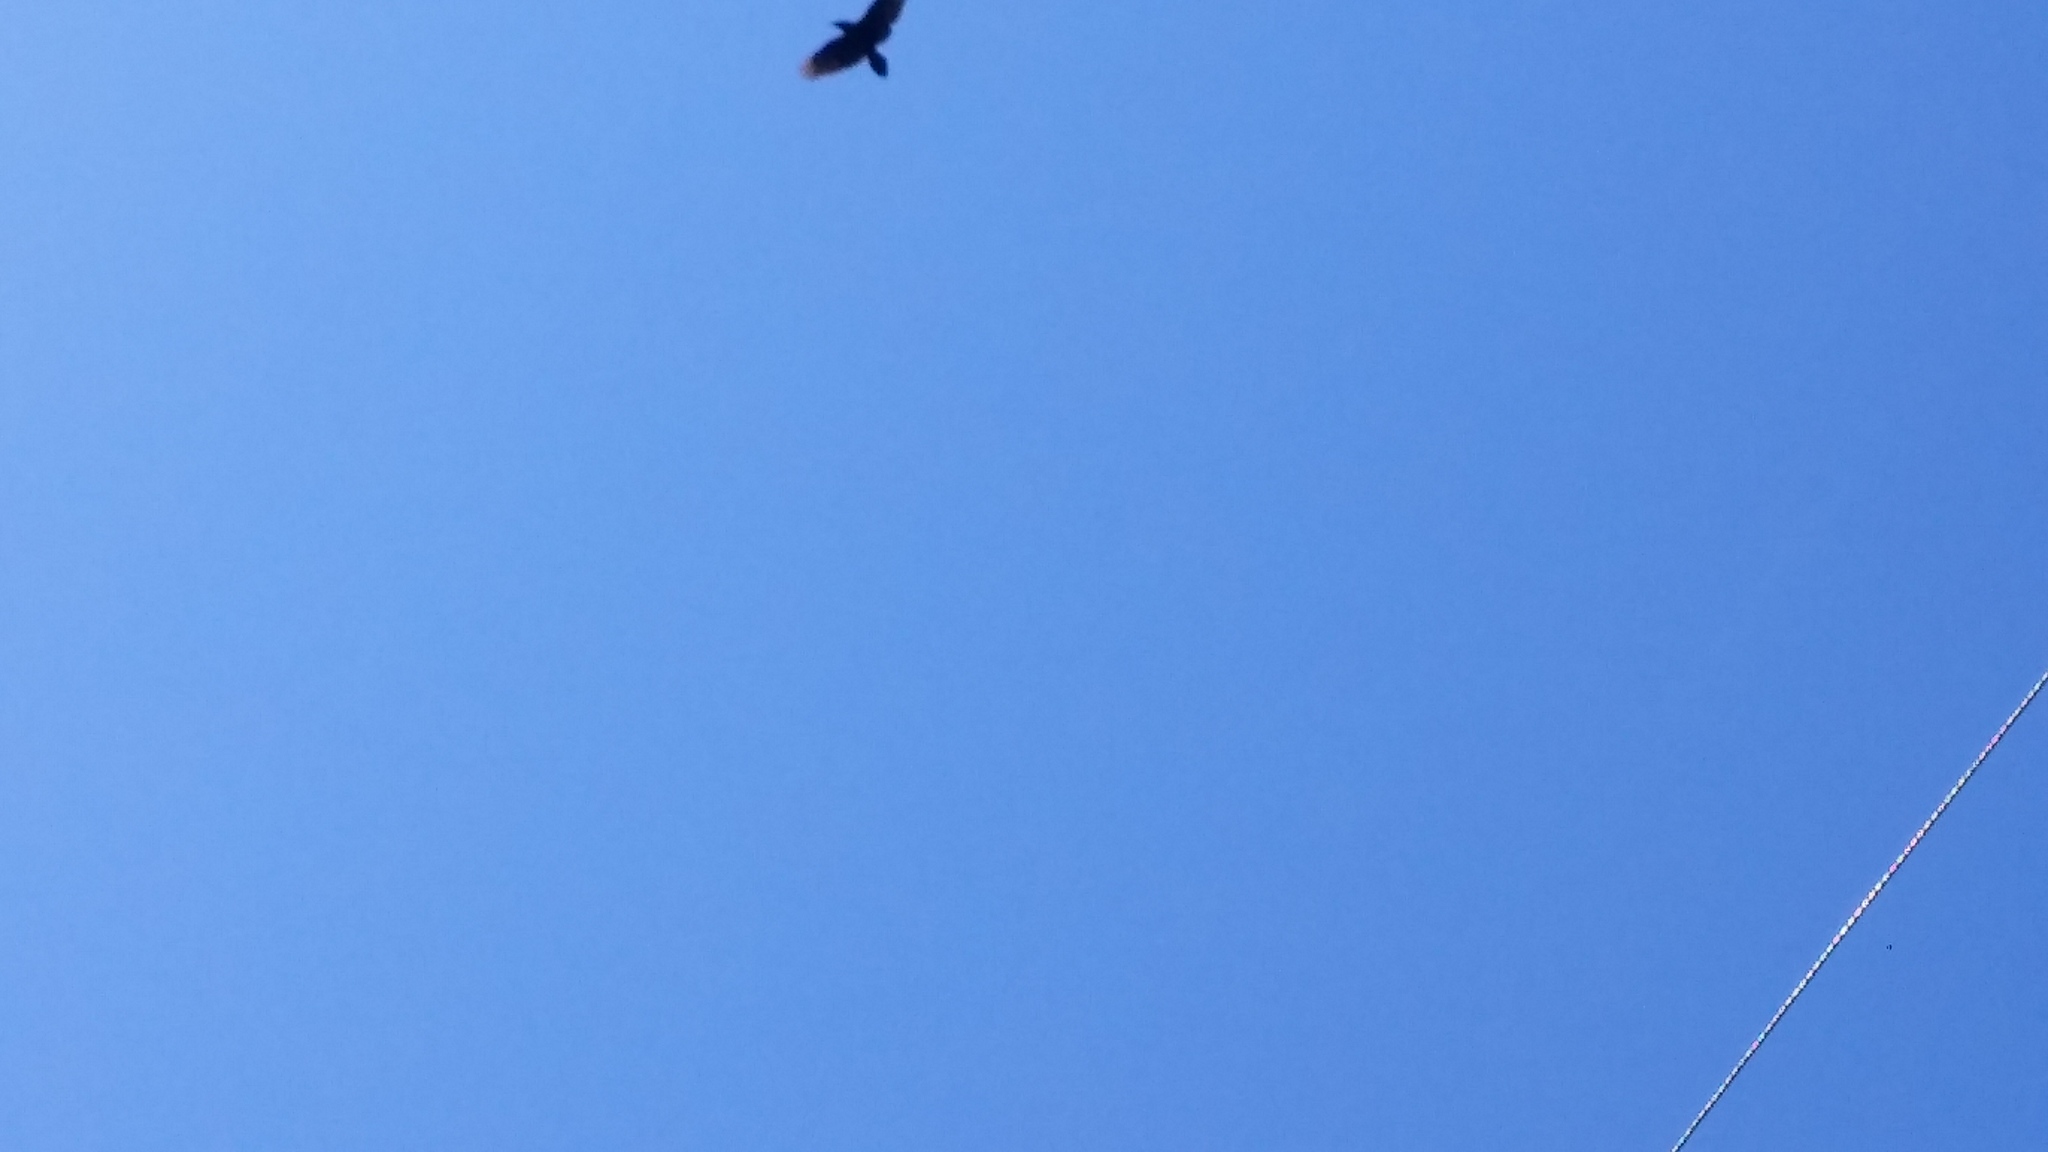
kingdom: Animalia
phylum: Chordata
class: Aves
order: Passeriformes
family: Corvidae
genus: Corvus
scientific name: Corvus corax
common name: Common raven
